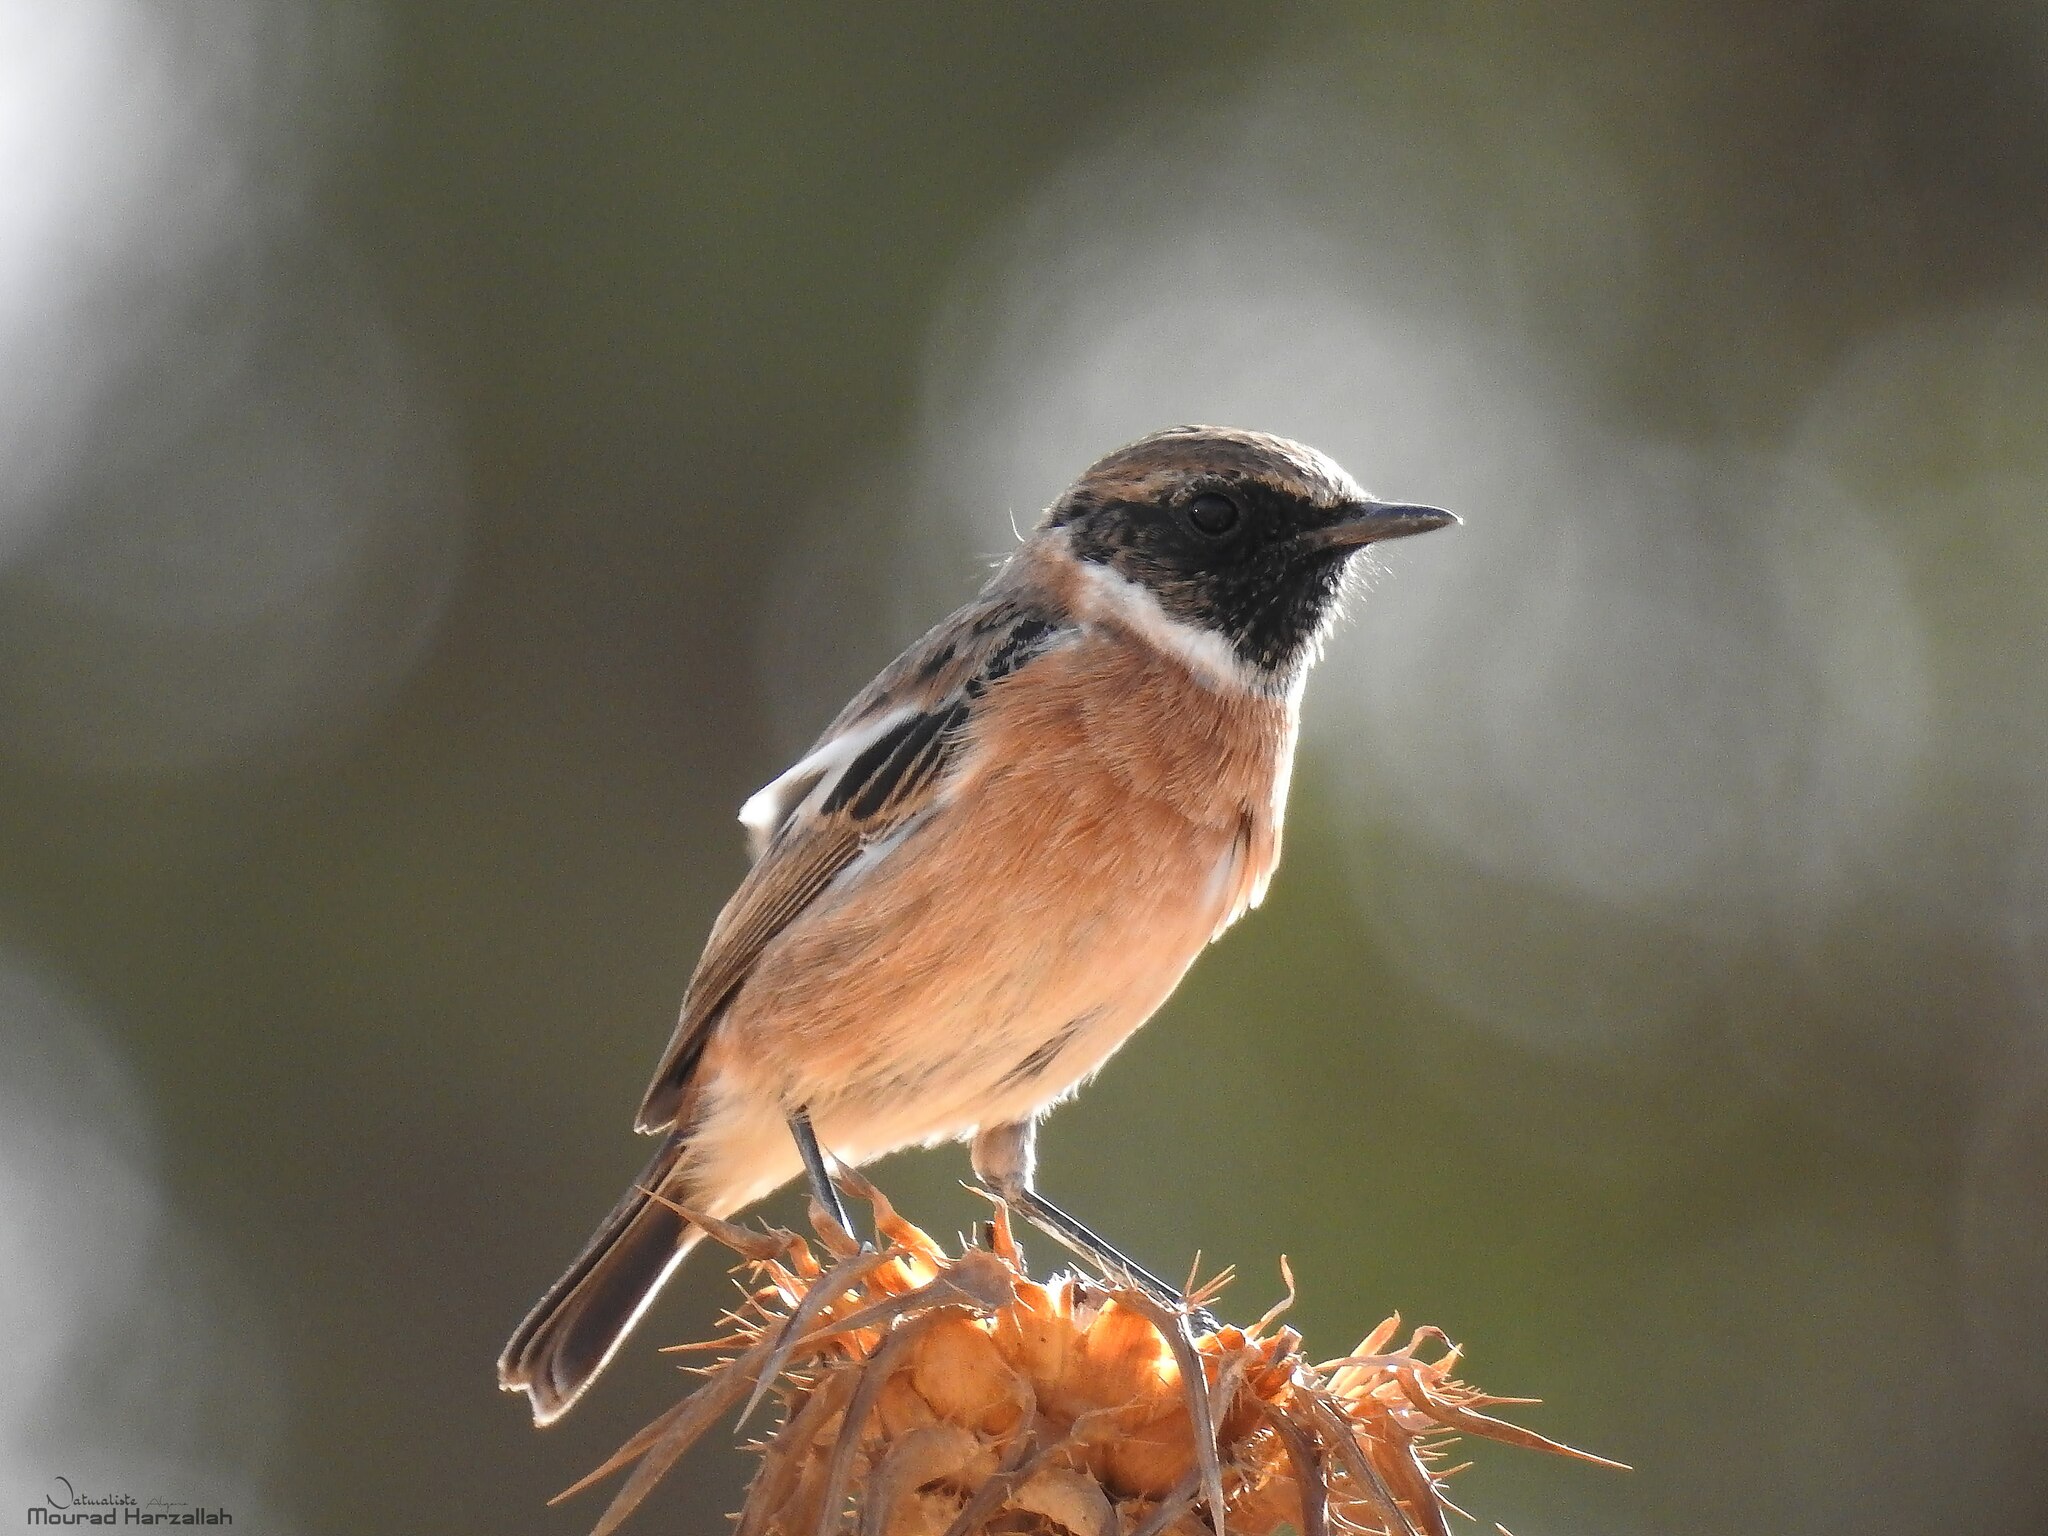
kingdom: Animalia
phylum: Chordata
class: Aves
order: Passeriformes
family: Muscicapidae
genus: Saxicola
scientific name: Saxicola rubicola
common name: European stonechat
